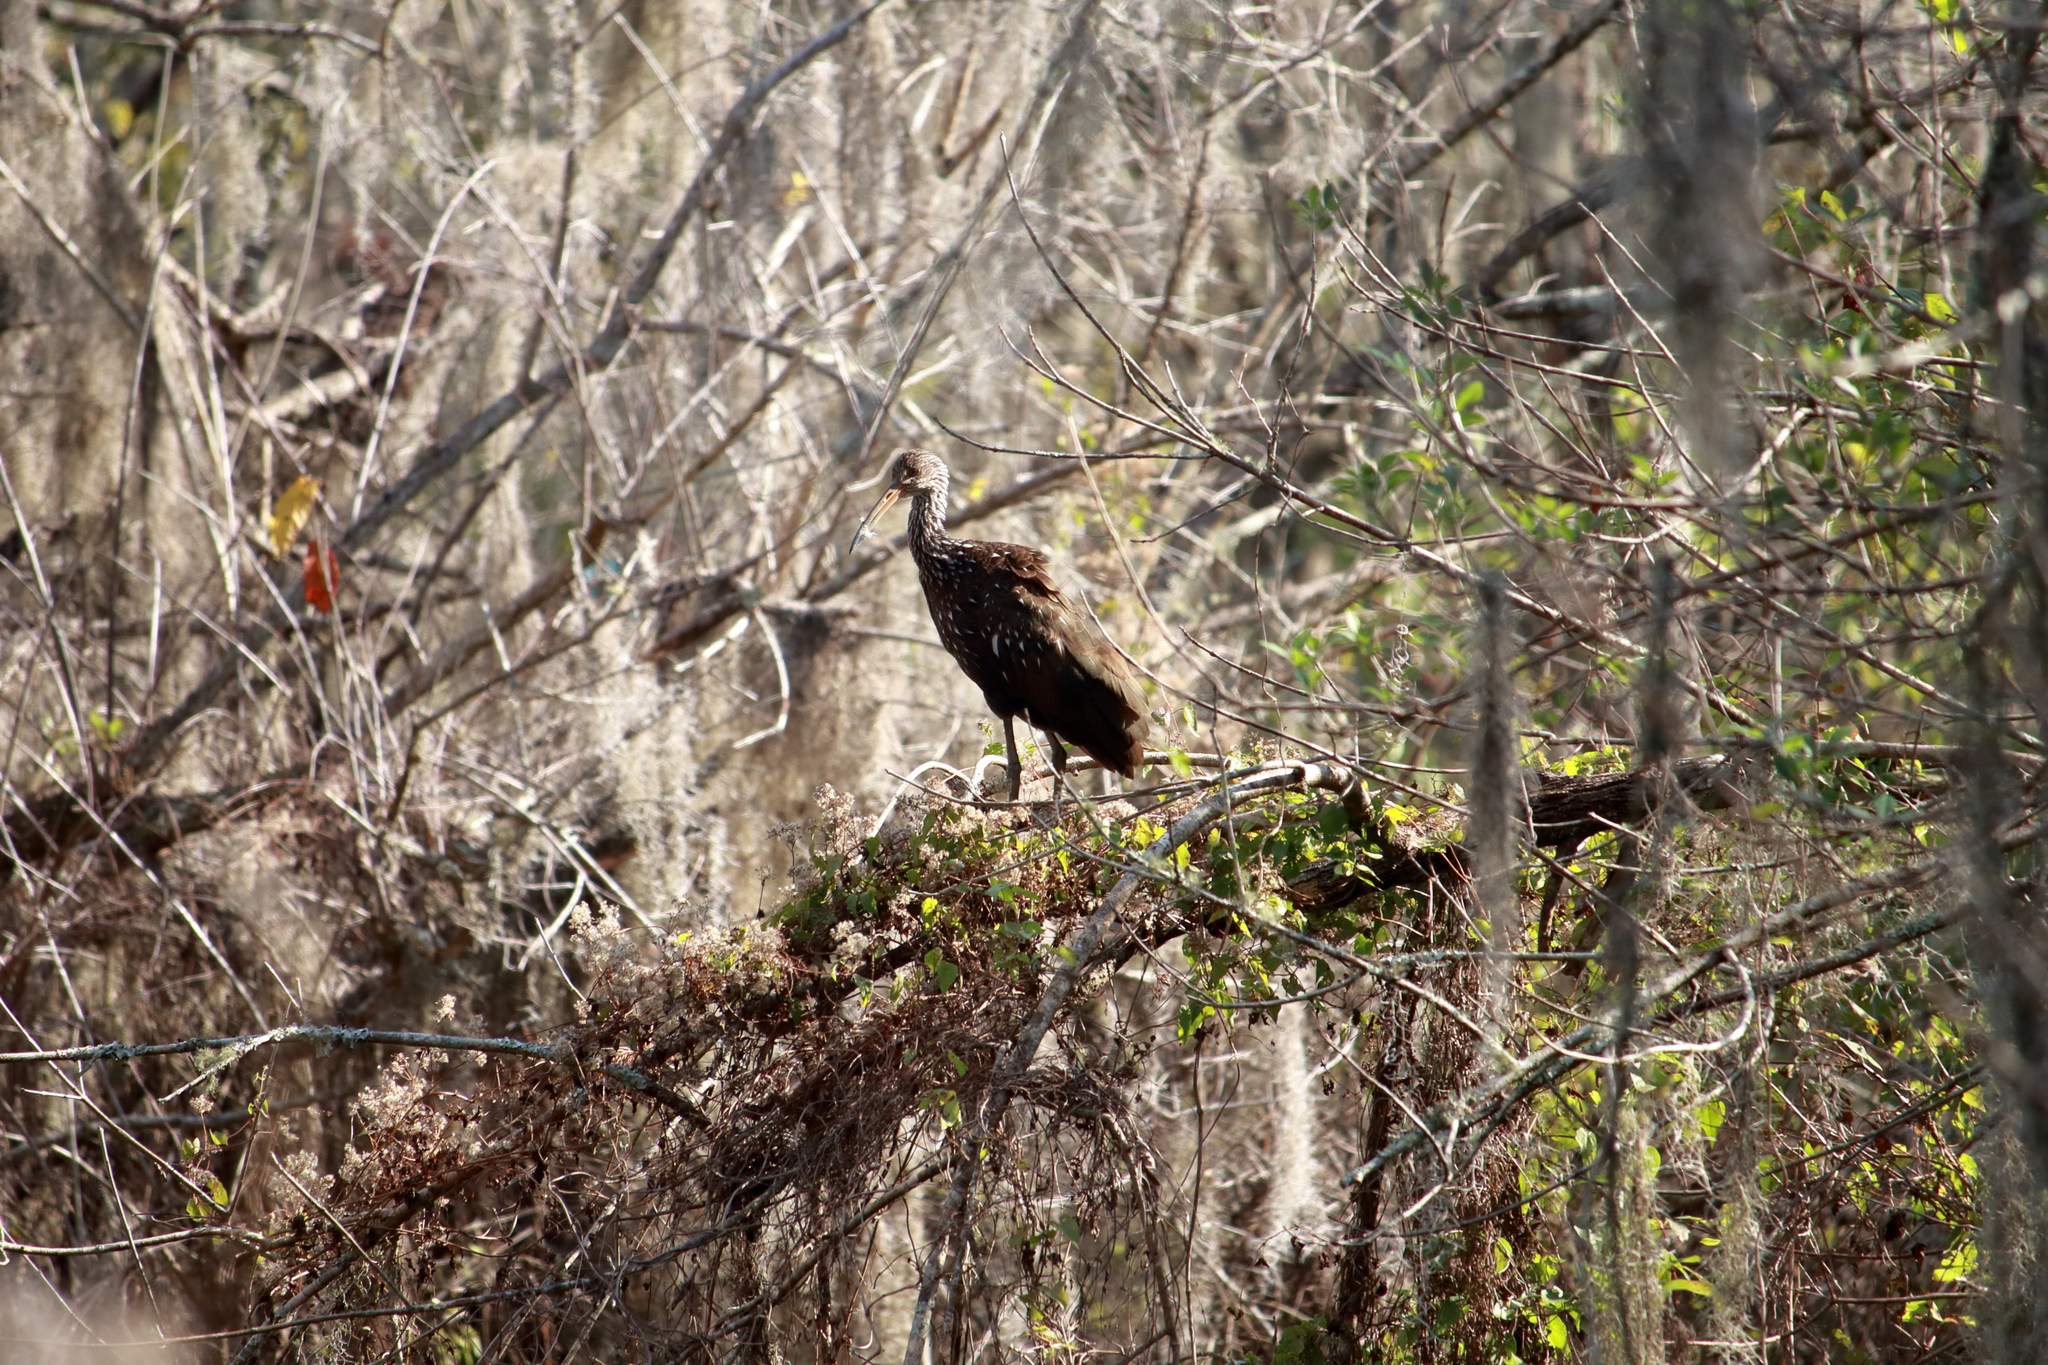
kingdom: Animalia
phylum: Chordata
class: Aves
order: Gruiformes
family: Aramidae
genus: Aramus
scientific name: Aramus guarauna
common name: Limpkin
